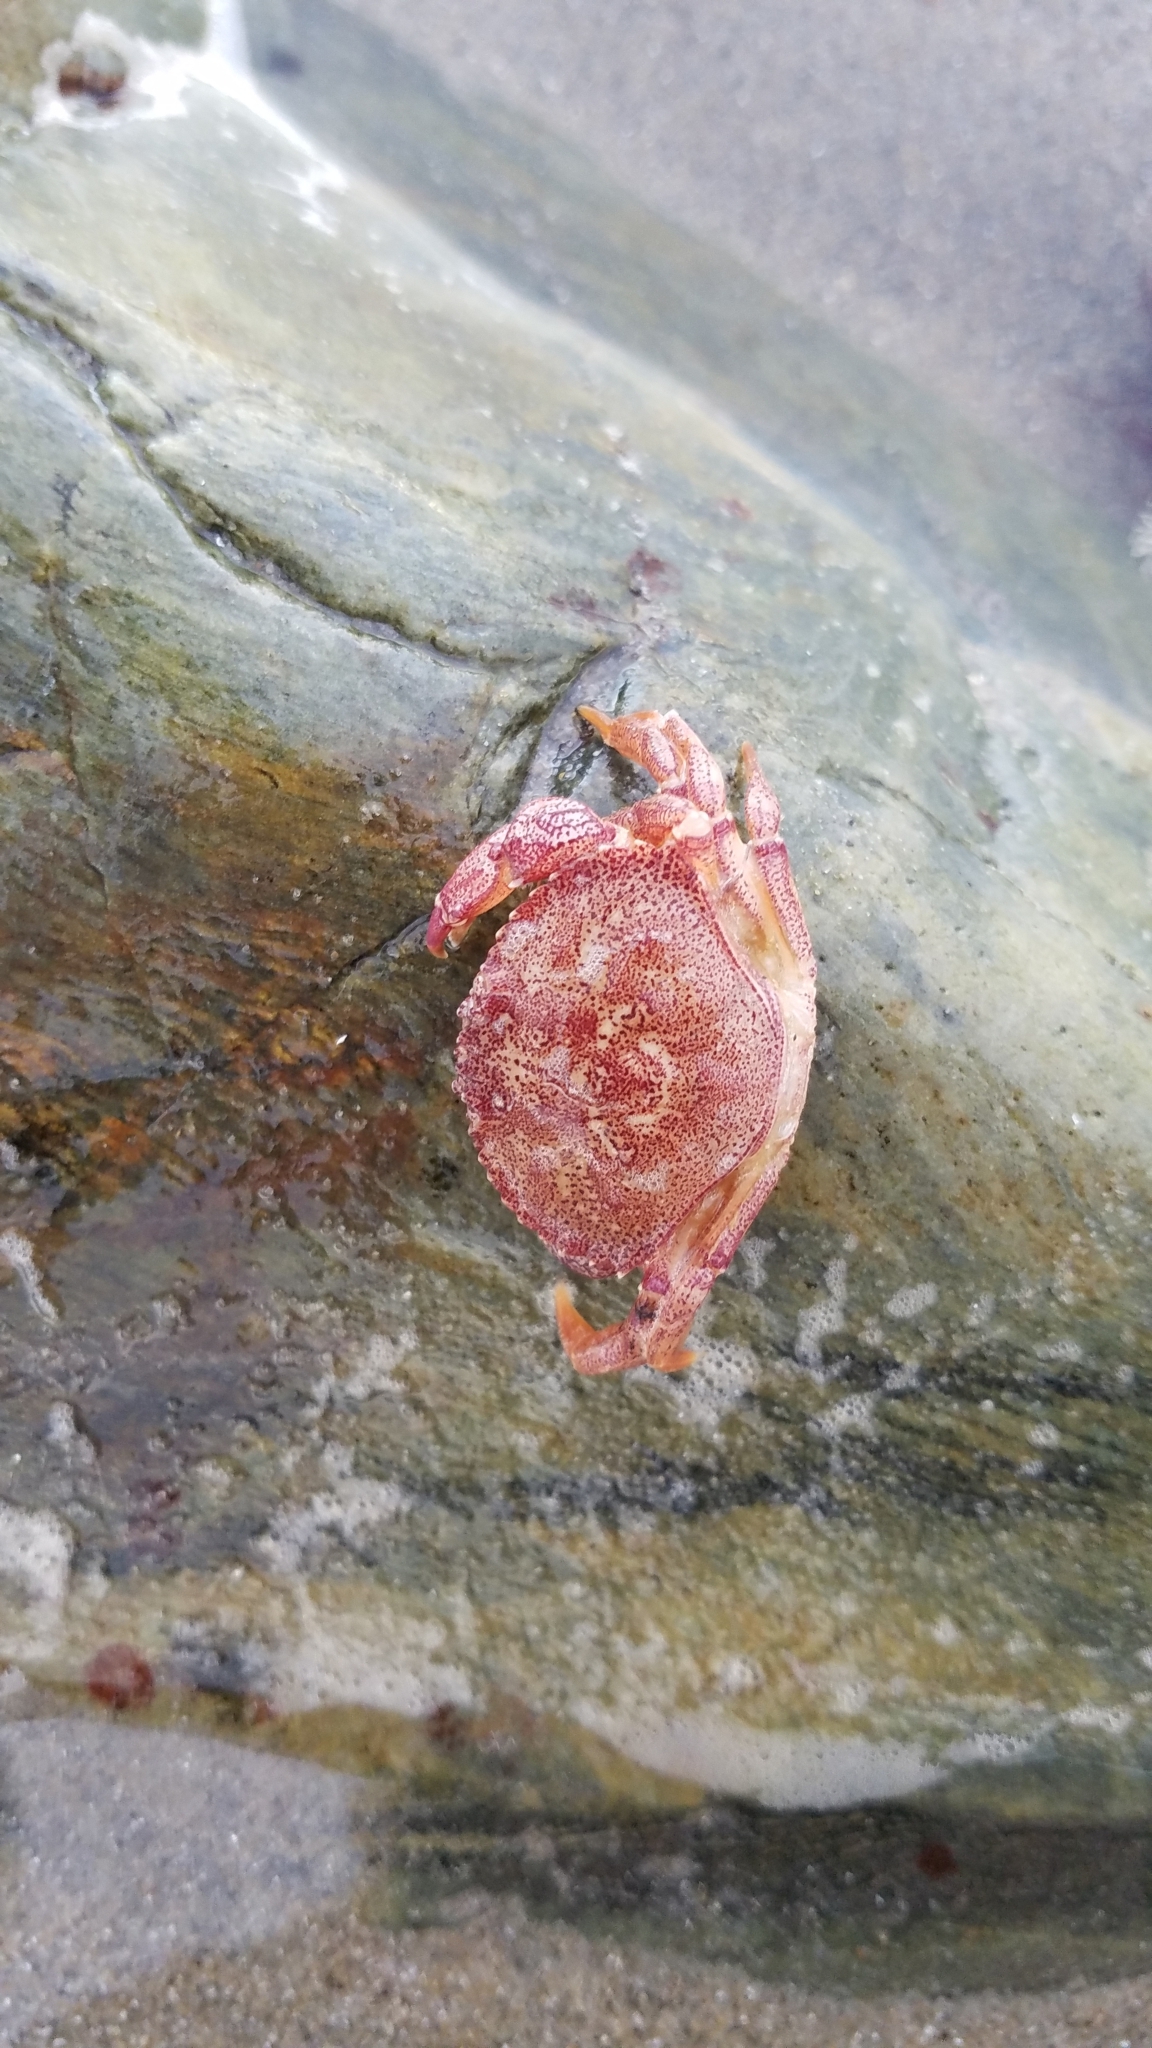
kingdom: Animalia
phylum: Arthropoda
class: Malacostraca
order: Decapoda
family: Cancridae
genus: Cancer
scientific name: Cancer irroratus
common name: Atlantic rock crab
